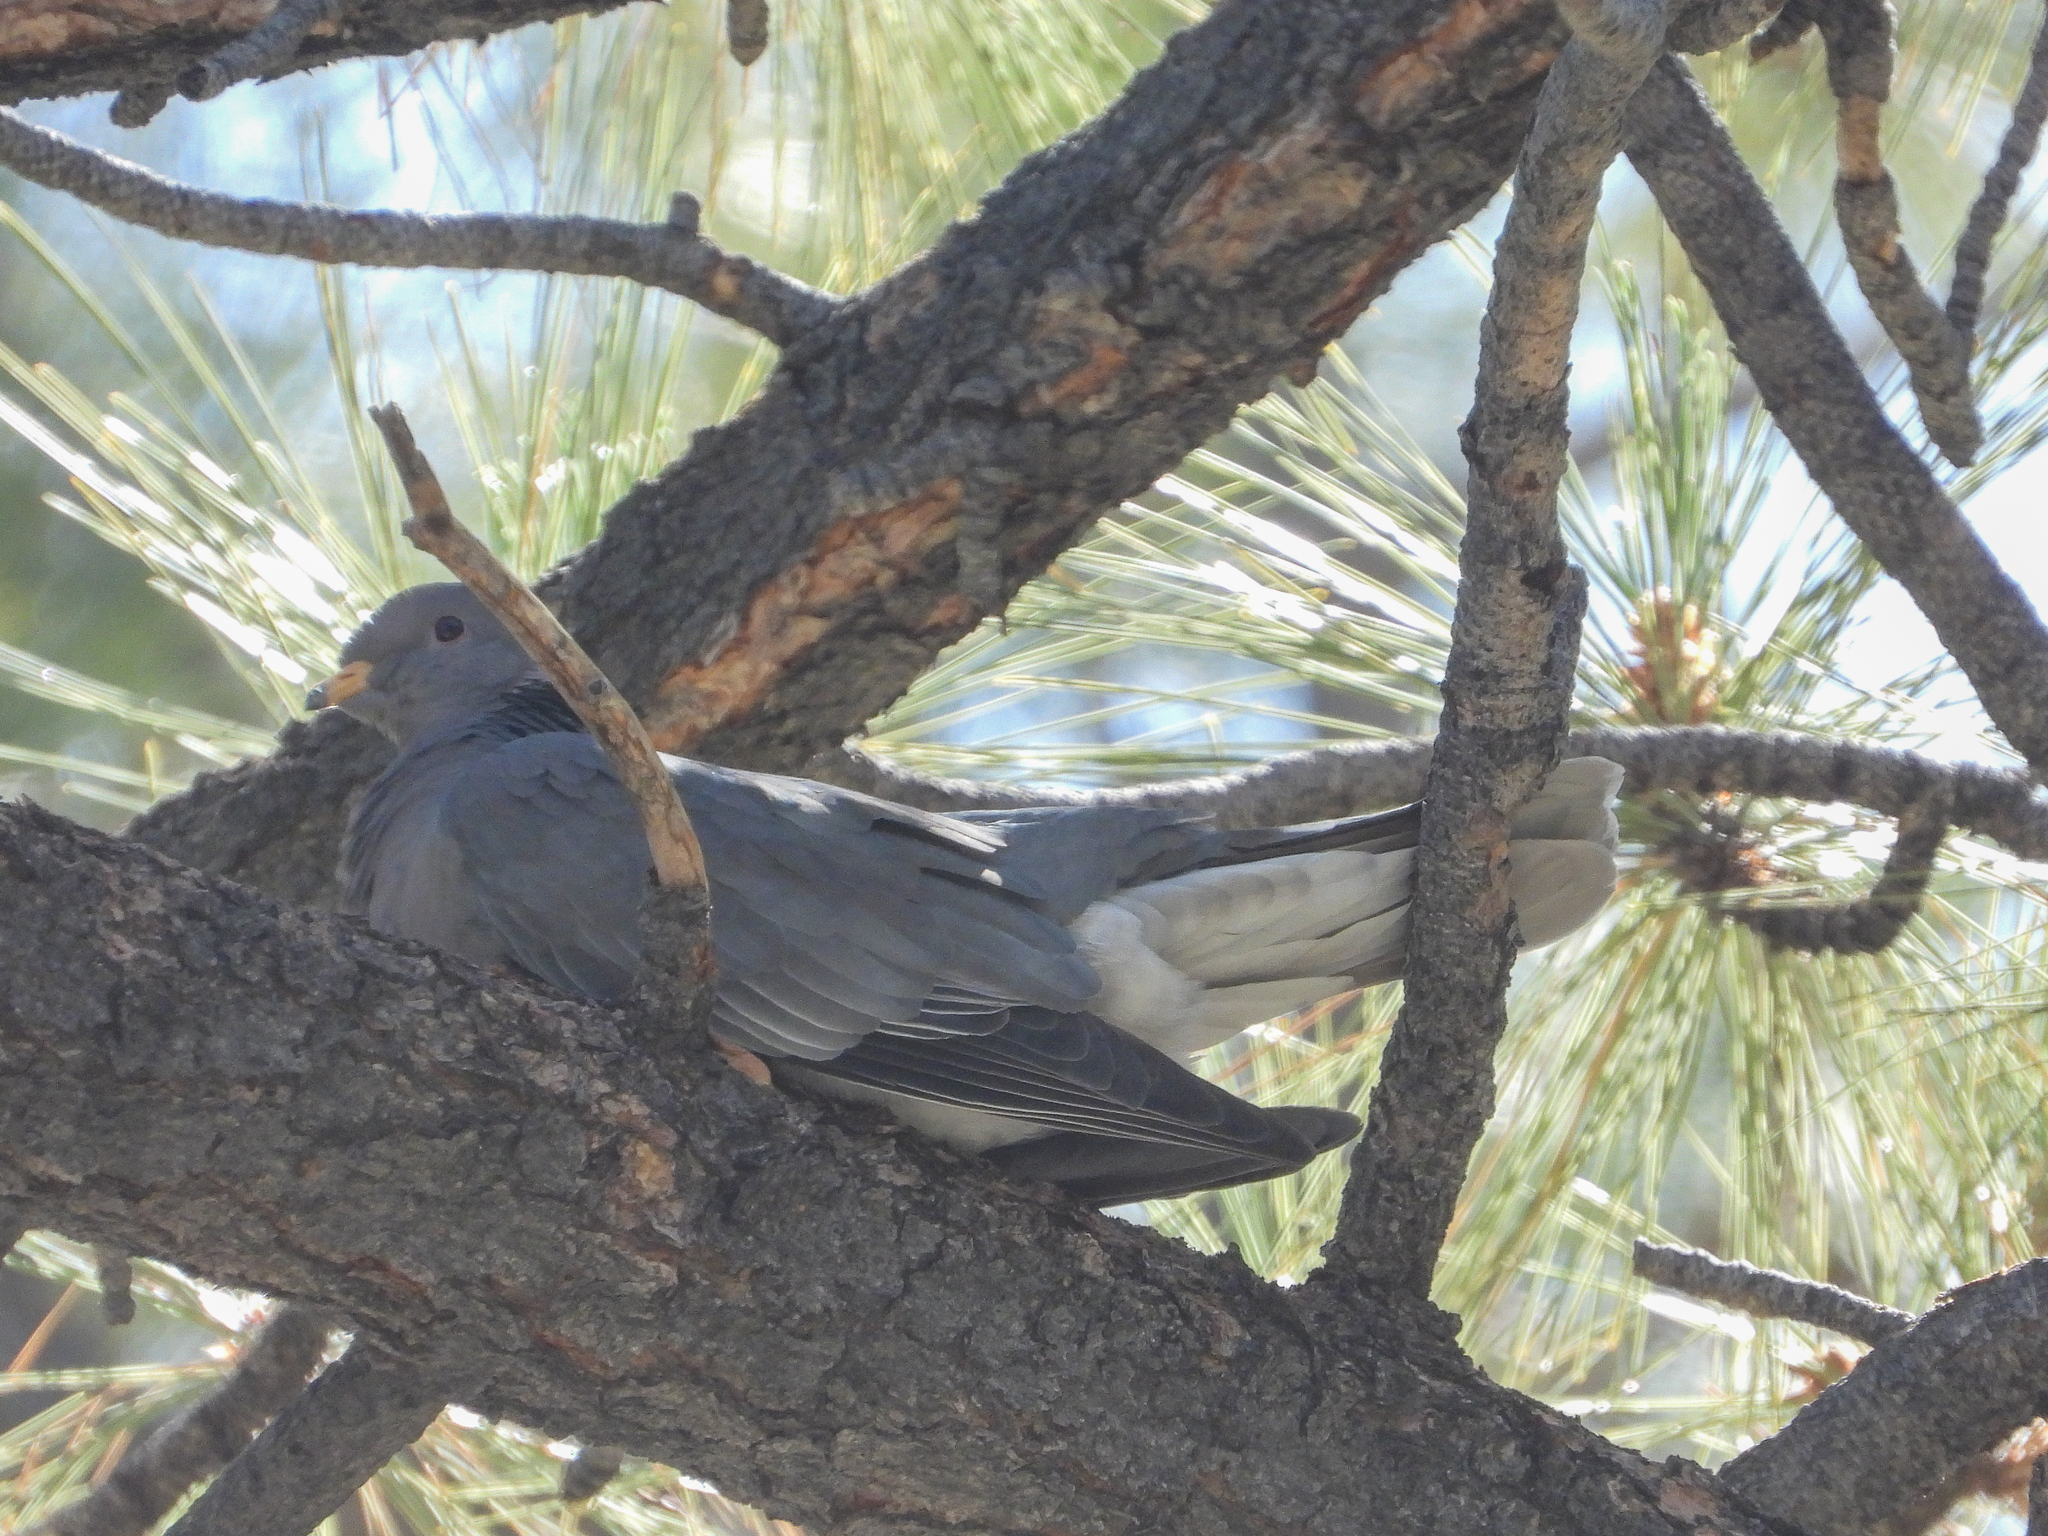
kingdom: Animalia
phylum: Chordata
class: Aves
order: Columbiformes
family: Columbidae
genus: Patagioenas
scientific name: Patagioenas fasciata
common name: Band-tailed pigeon
